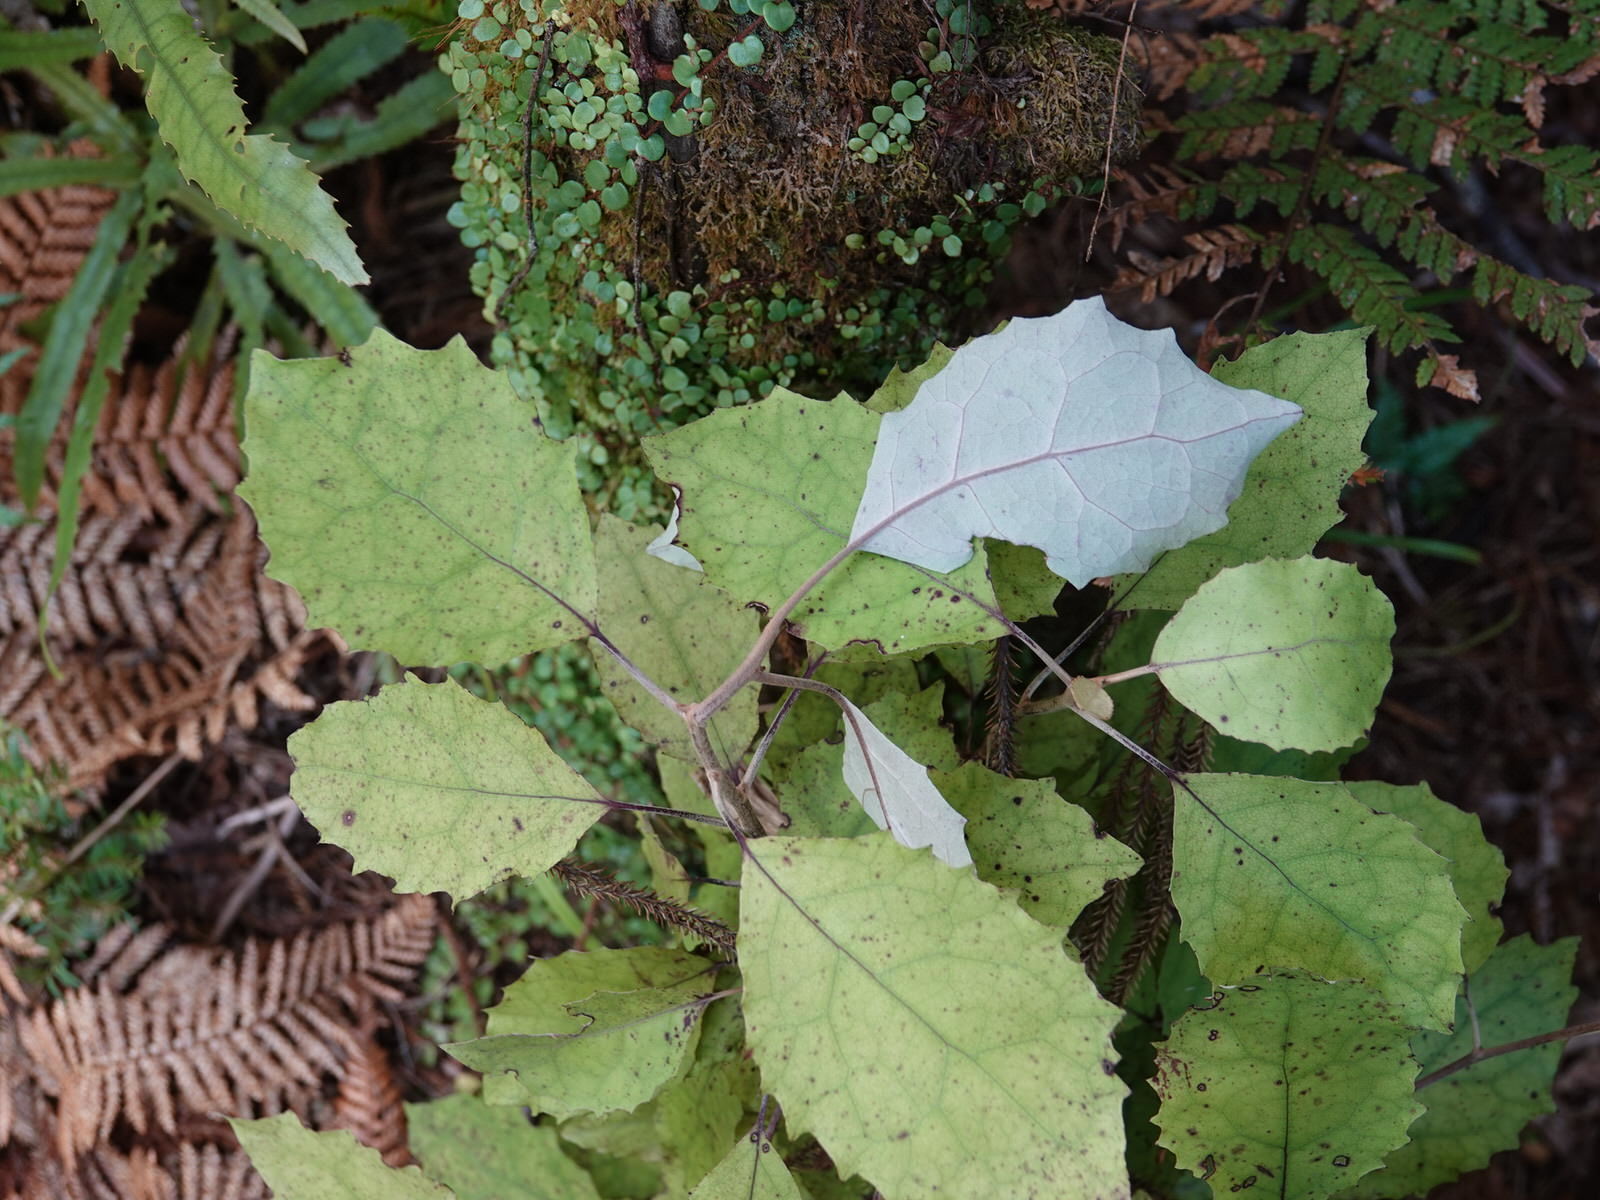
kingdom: Plantae
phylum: Tracheophyta
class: Magnoliopsida
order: Asterales
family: Asteraceae
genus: Olearia
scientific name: Olearia rani
